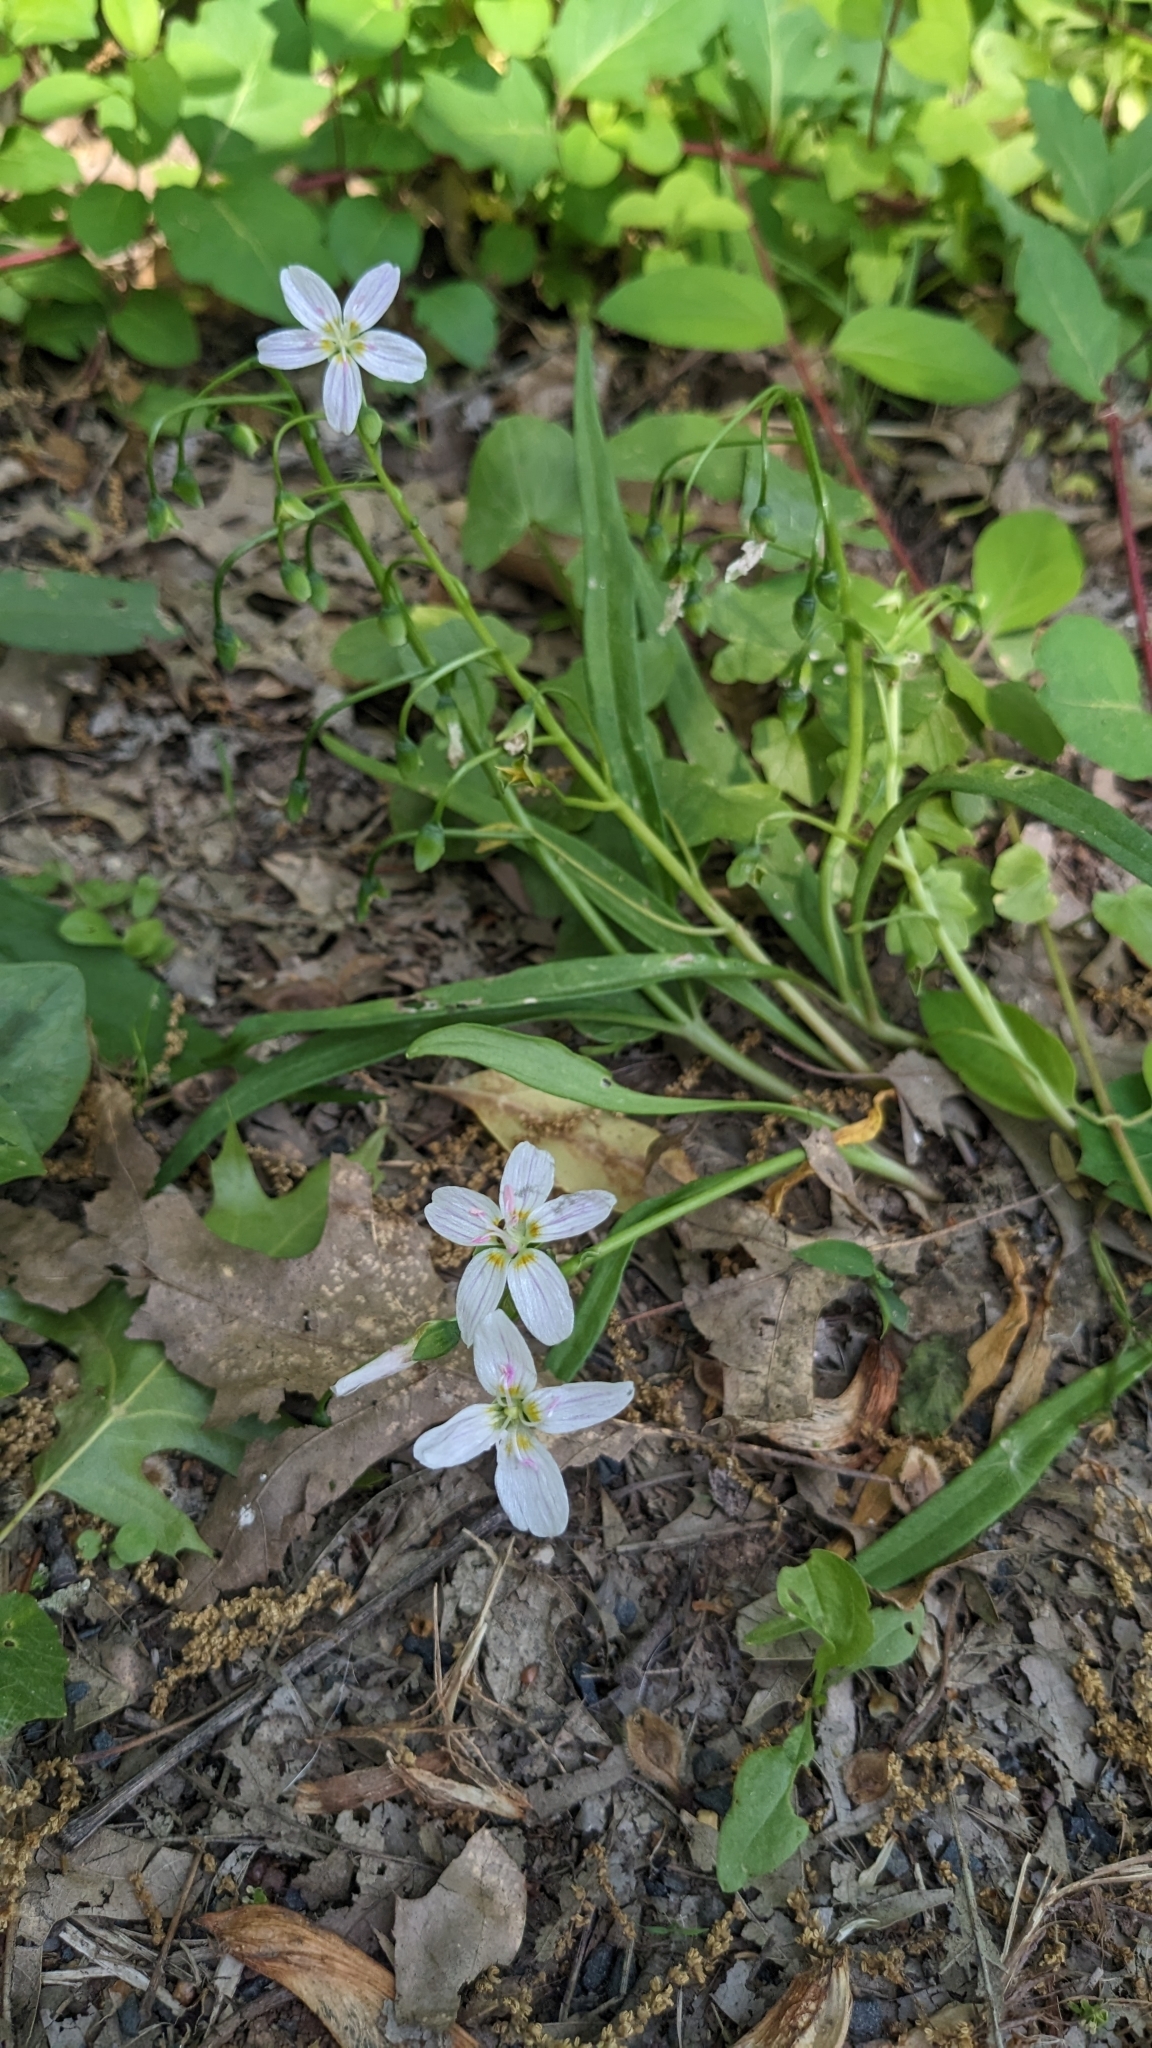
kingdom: Plantae
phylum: Tracheophyta
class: Magnoliopsida
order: Caryophyllales
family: Montiaceae
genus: Claytonia
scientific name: Claytonia virginica
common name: Virginia springbeauty
